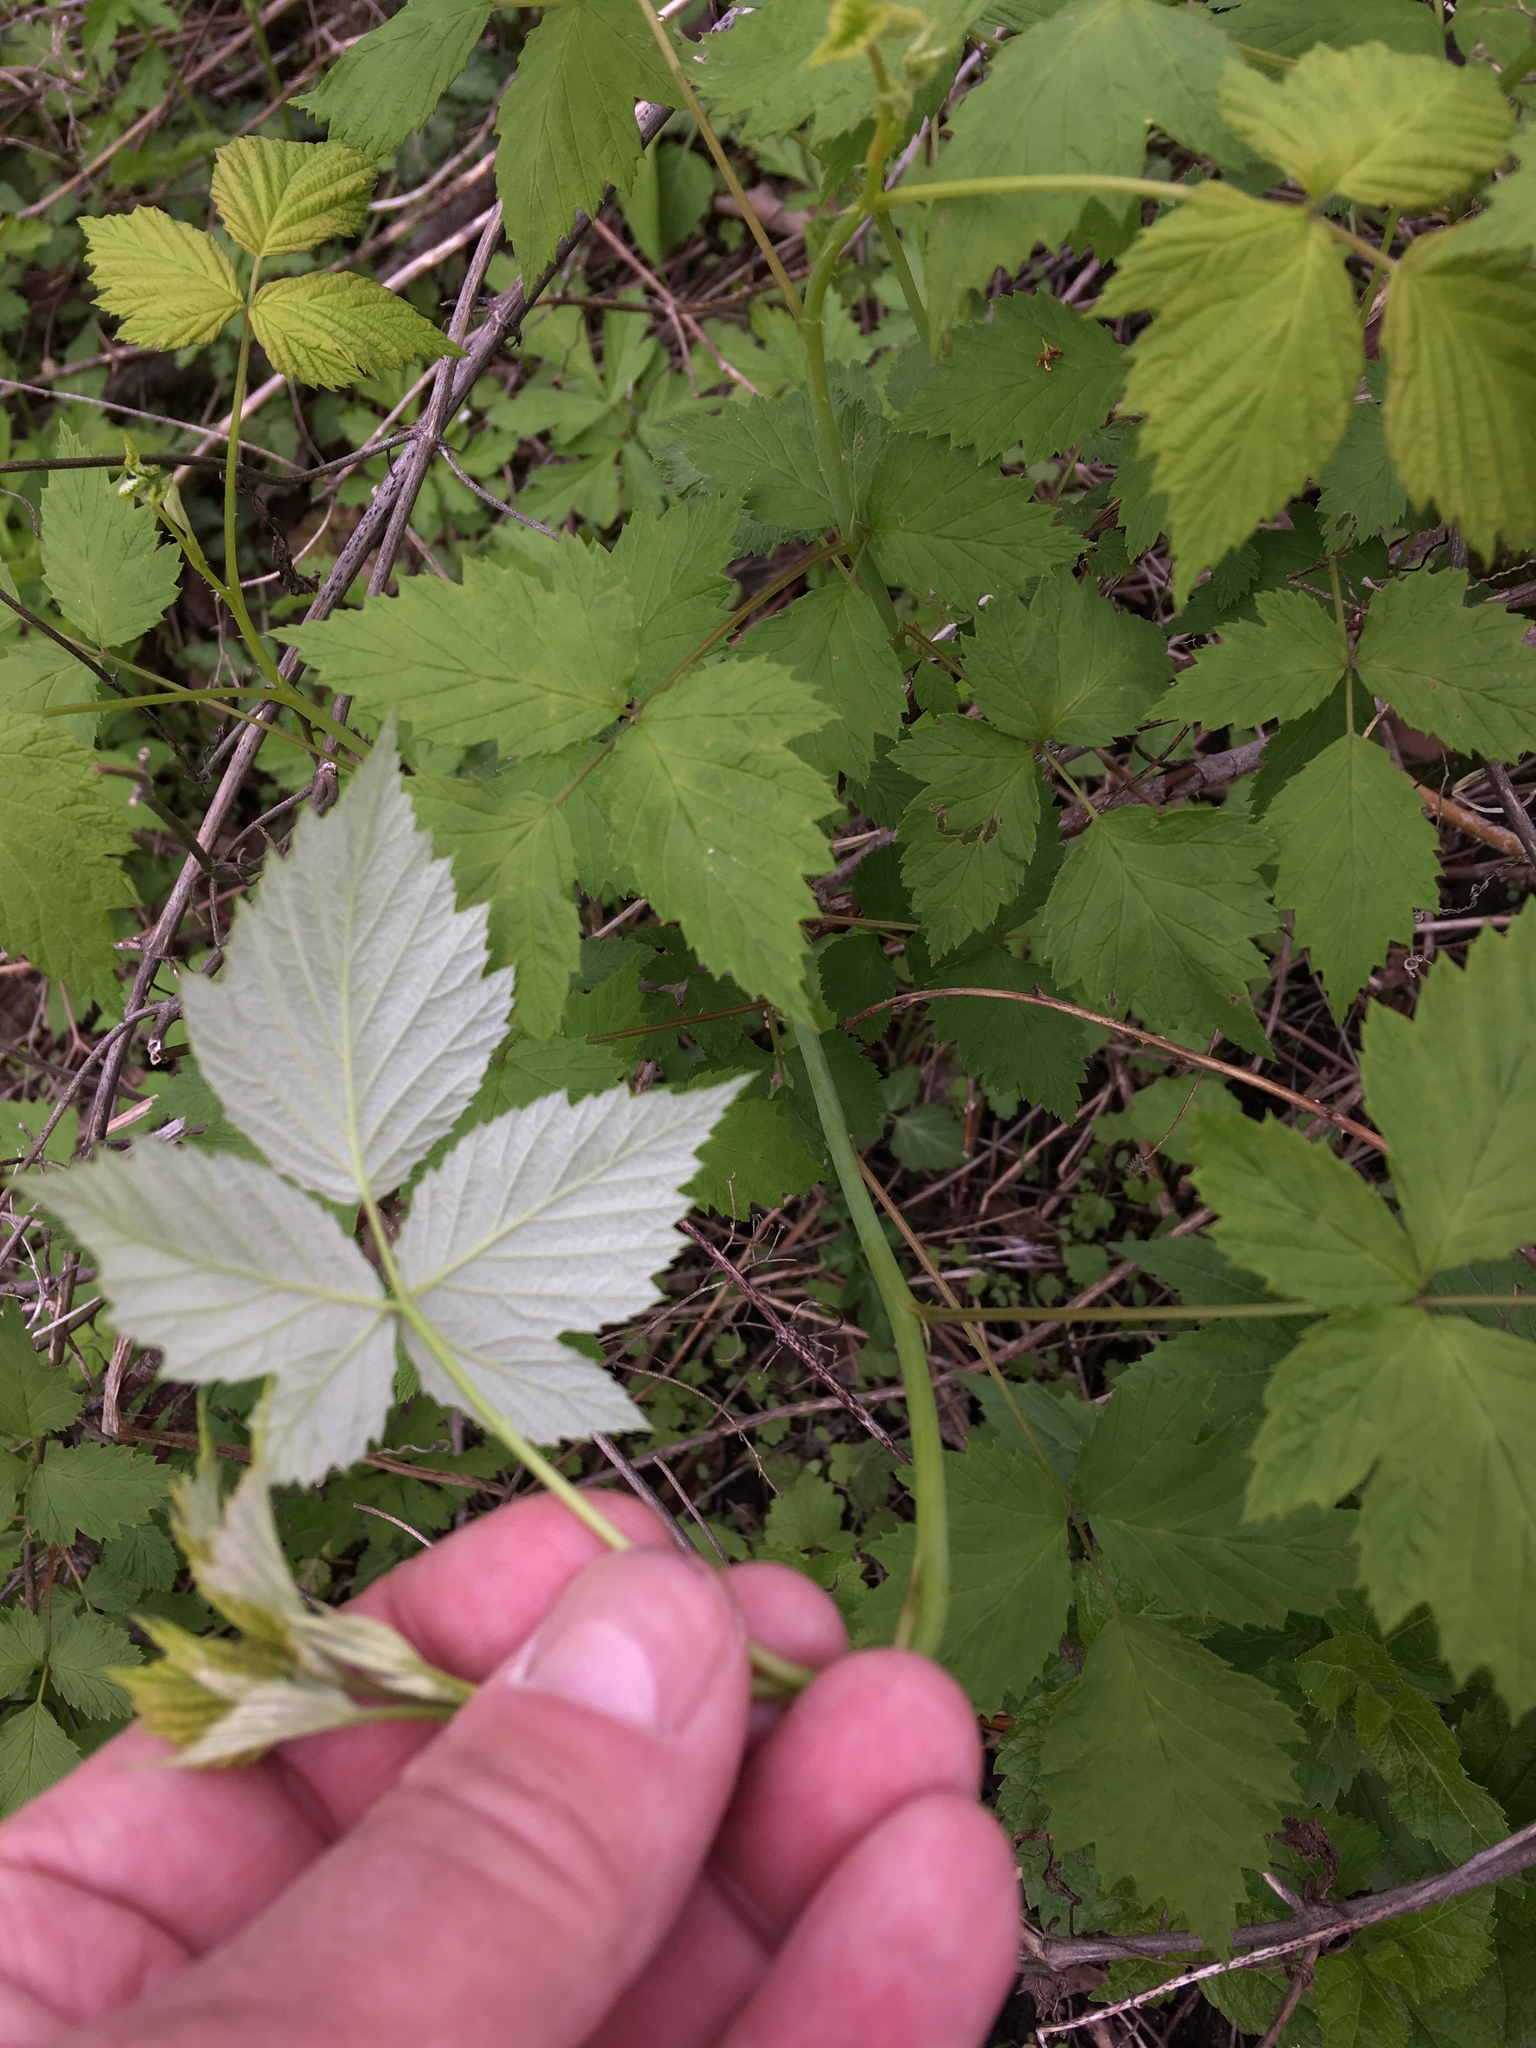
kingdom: Plantae
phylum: Tracheophyta
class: Magnoliopsida
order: Rosales
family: Rosaceae
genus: Rubus
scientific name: Rubus occidentalis
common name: Black raspberry
